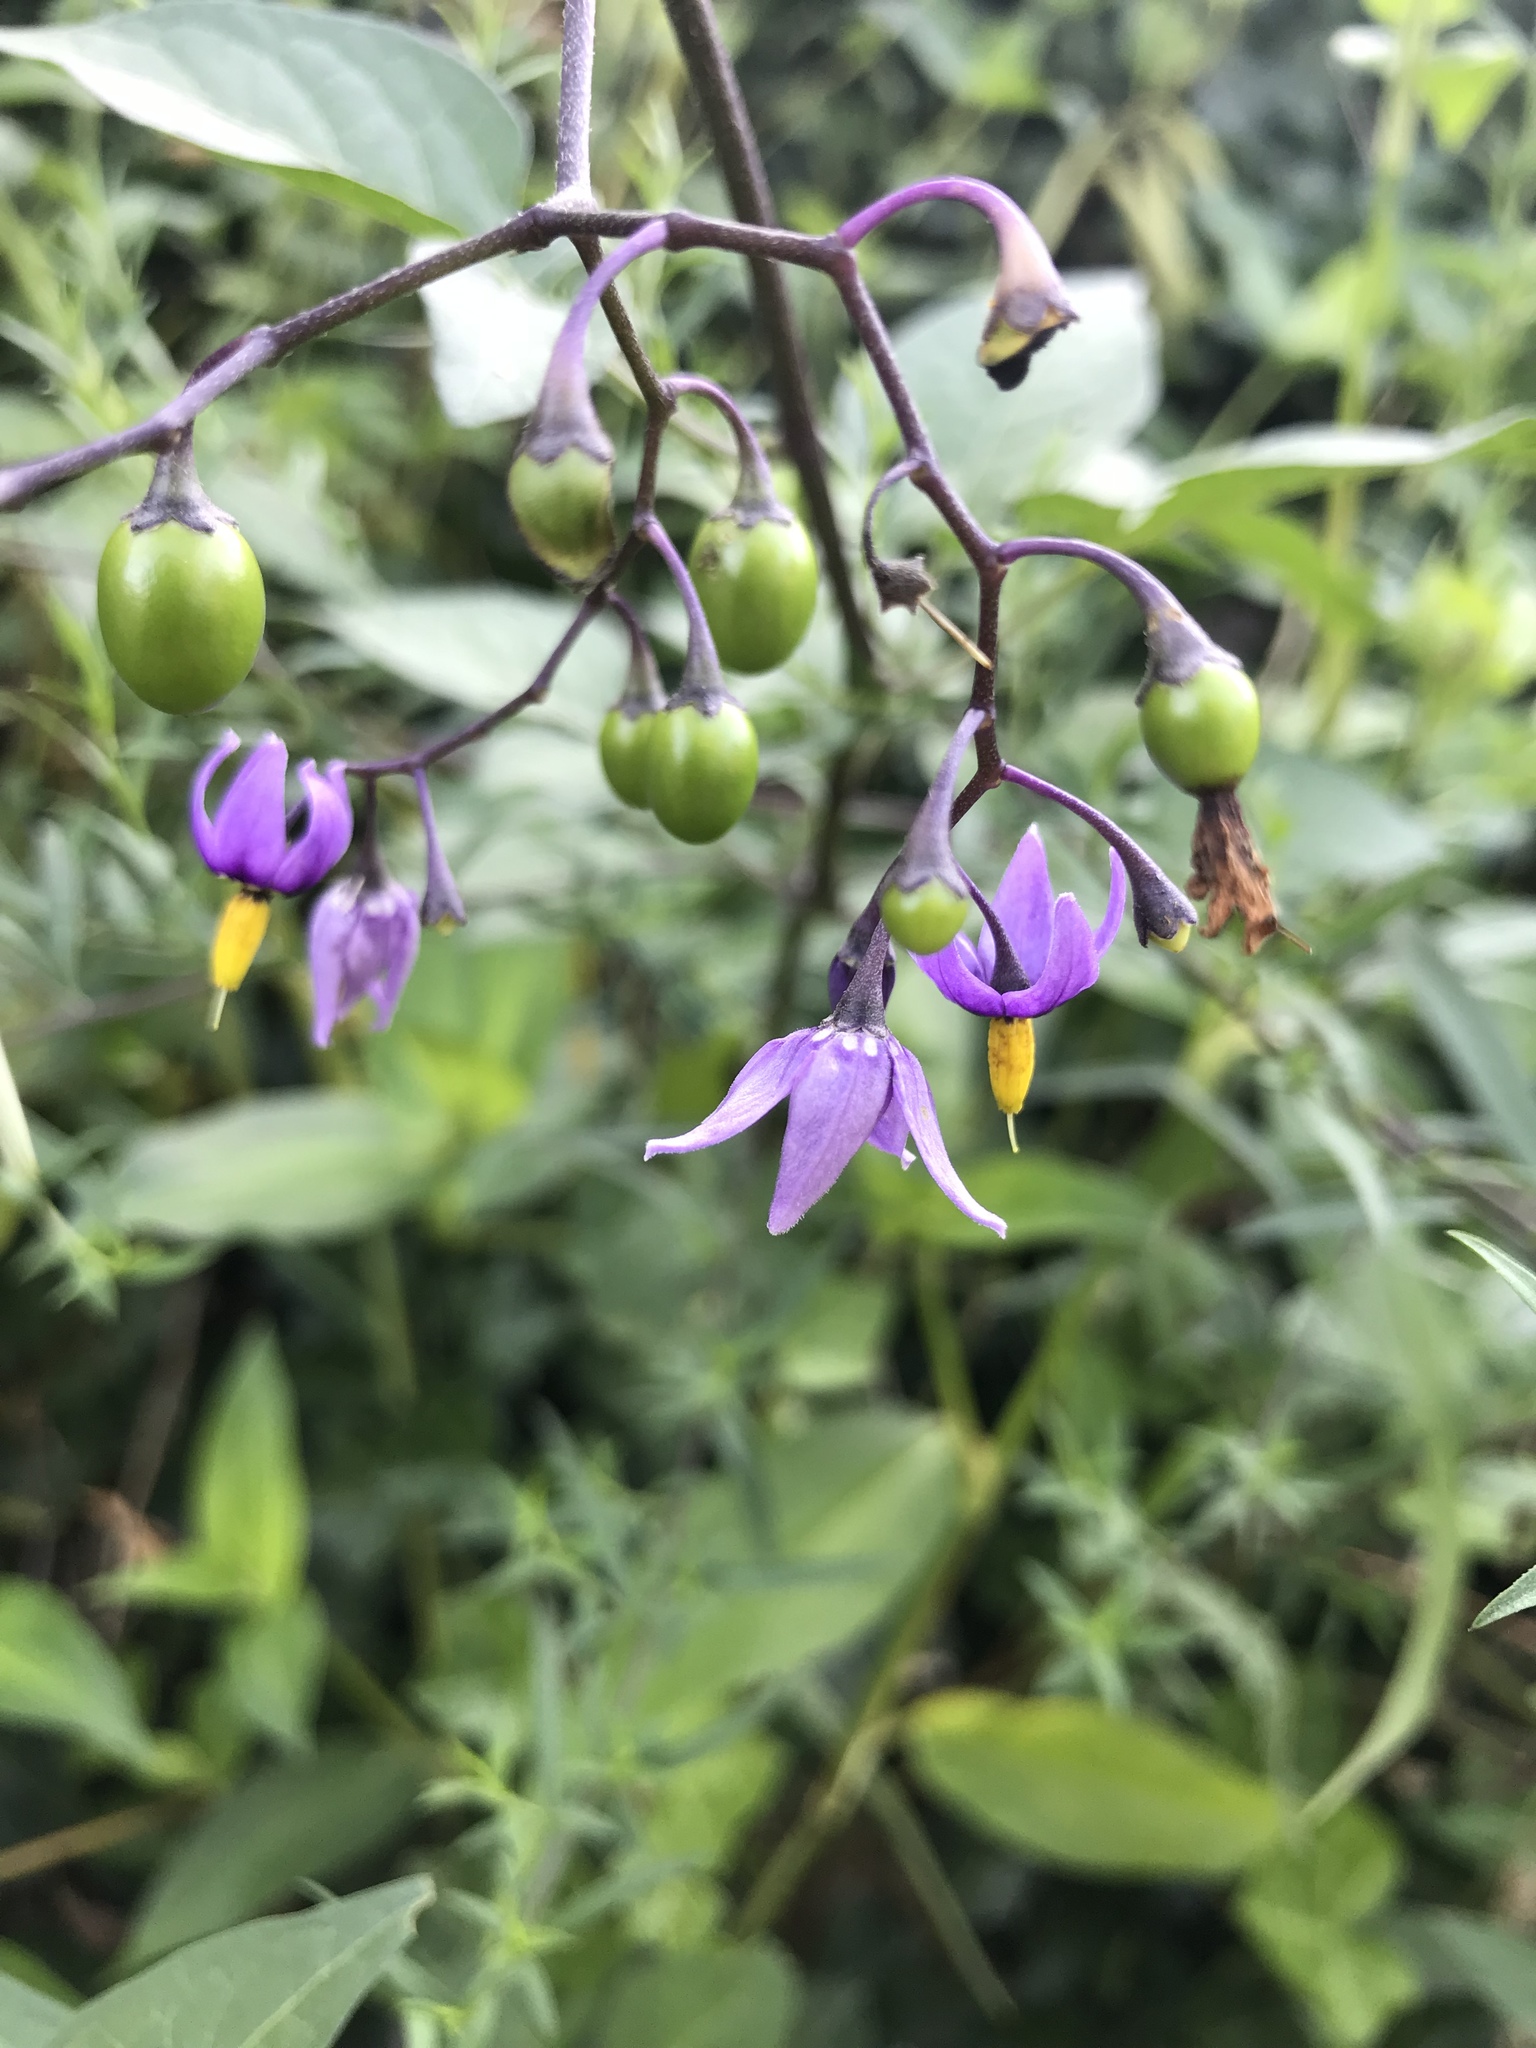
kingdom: Plantae
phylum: Tracheophyta
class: Magnoliopsida
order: Solanales
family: Solanaceae
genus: Solanum
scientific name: Solanum dulcamara
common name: Climbing nightshade
